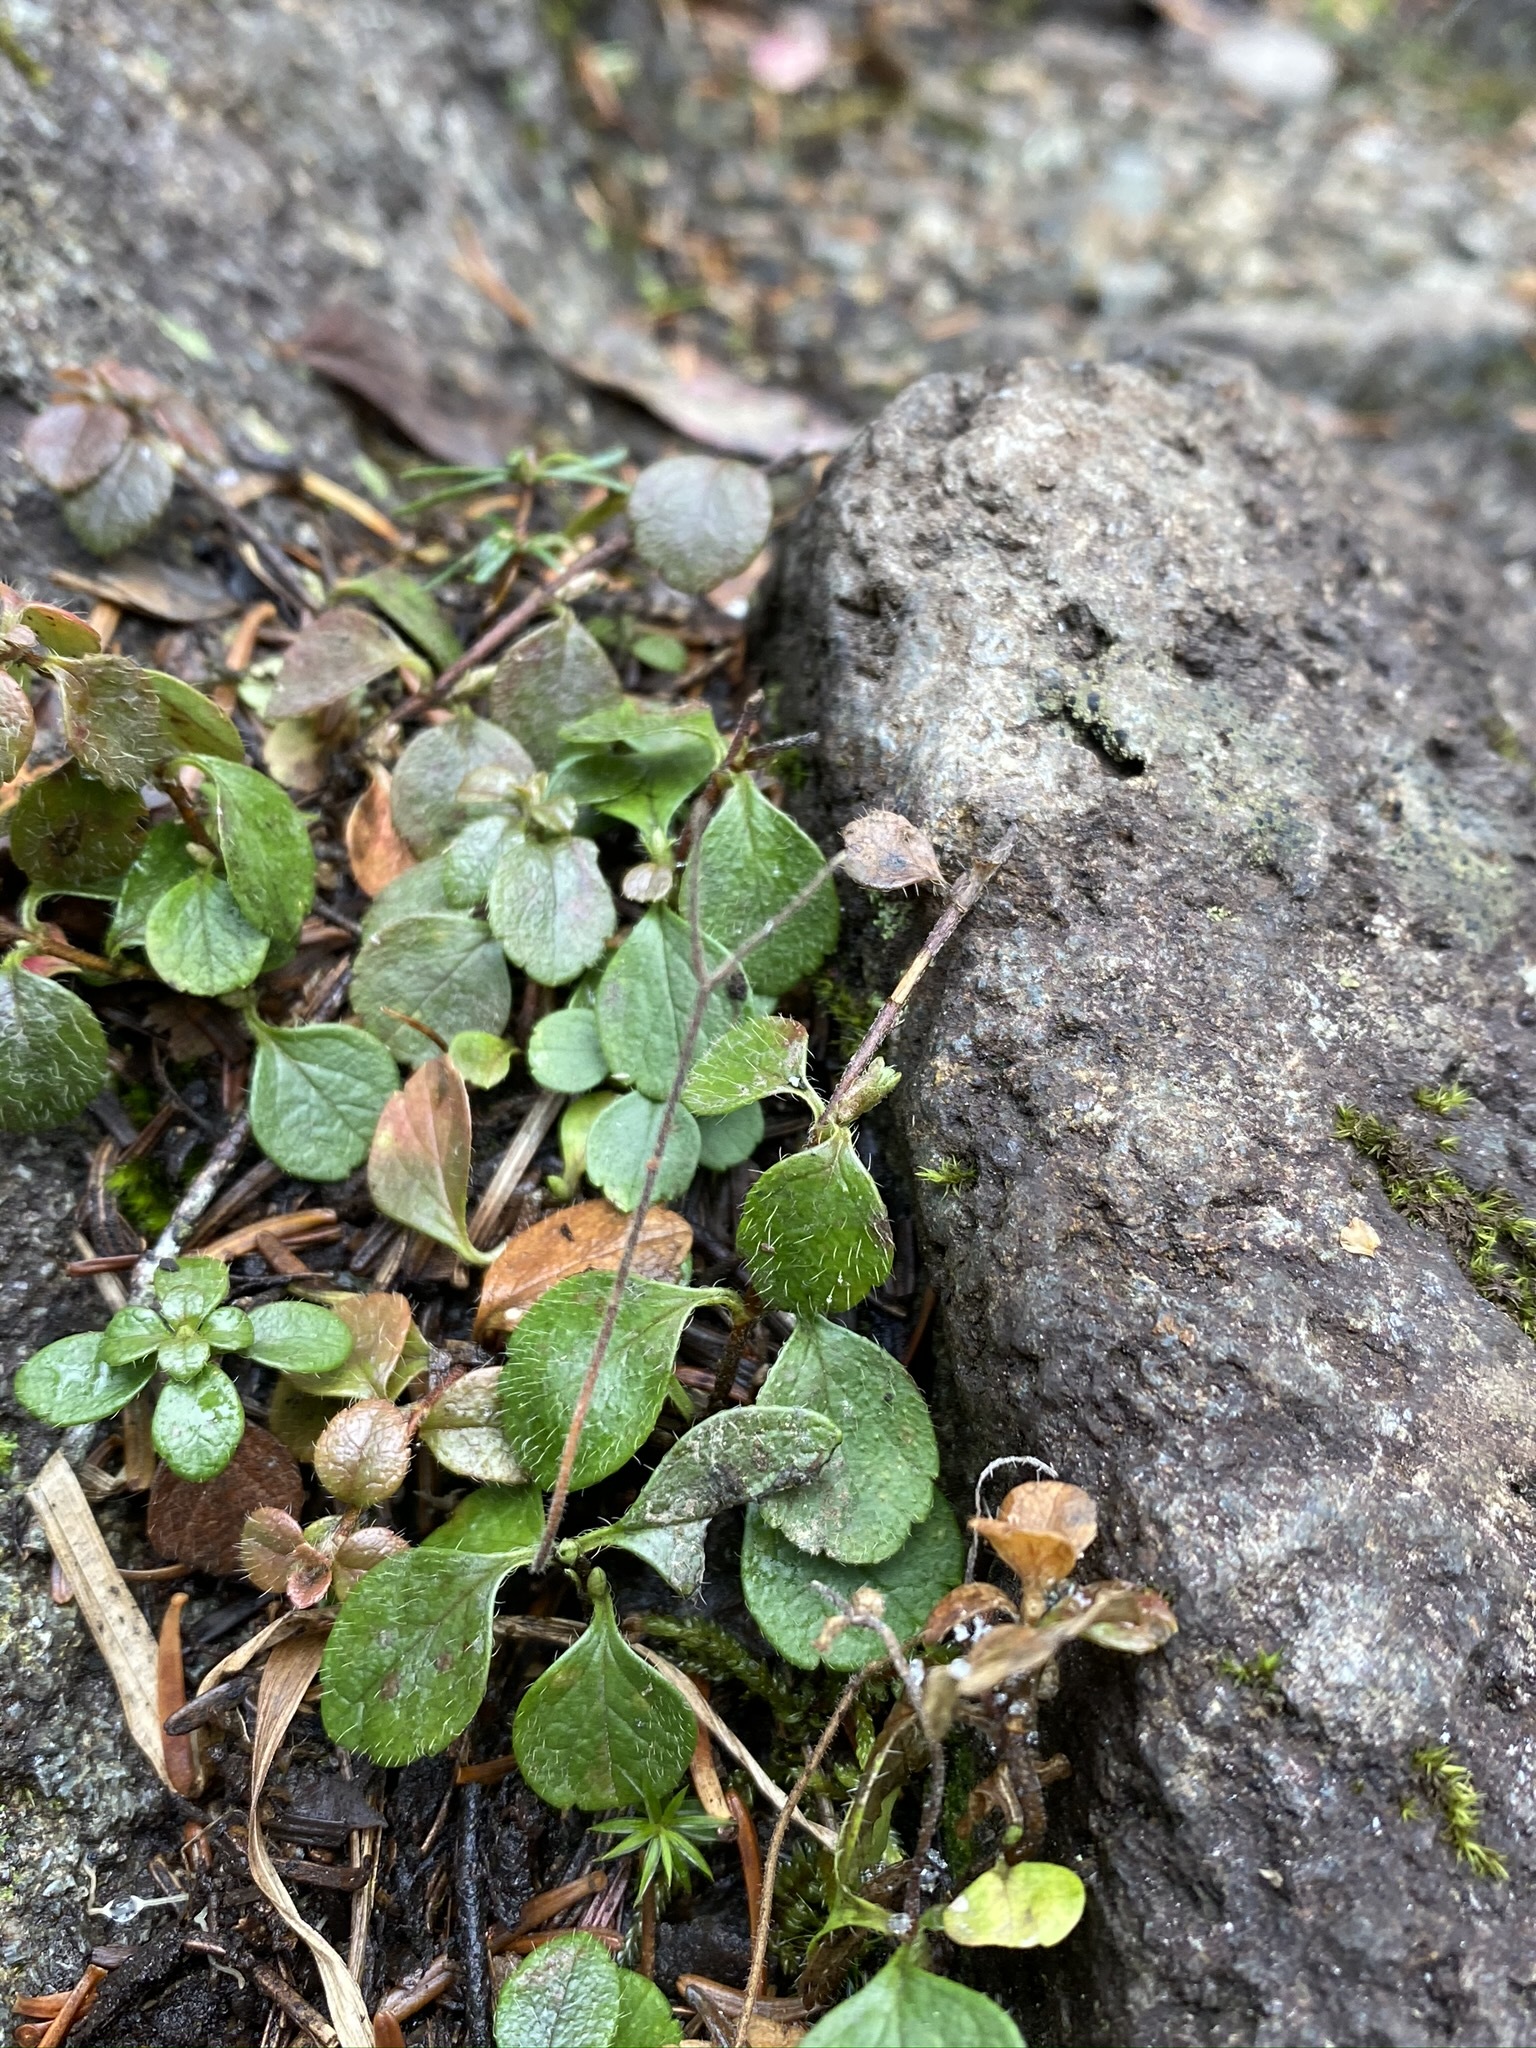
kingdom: Plantae
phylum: Tracheophyta
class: Magnoliopsida
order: Dipsacales
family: Caprifoliaceae
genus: Linnaea
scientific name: Linnaea borealis
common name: Twinflower
